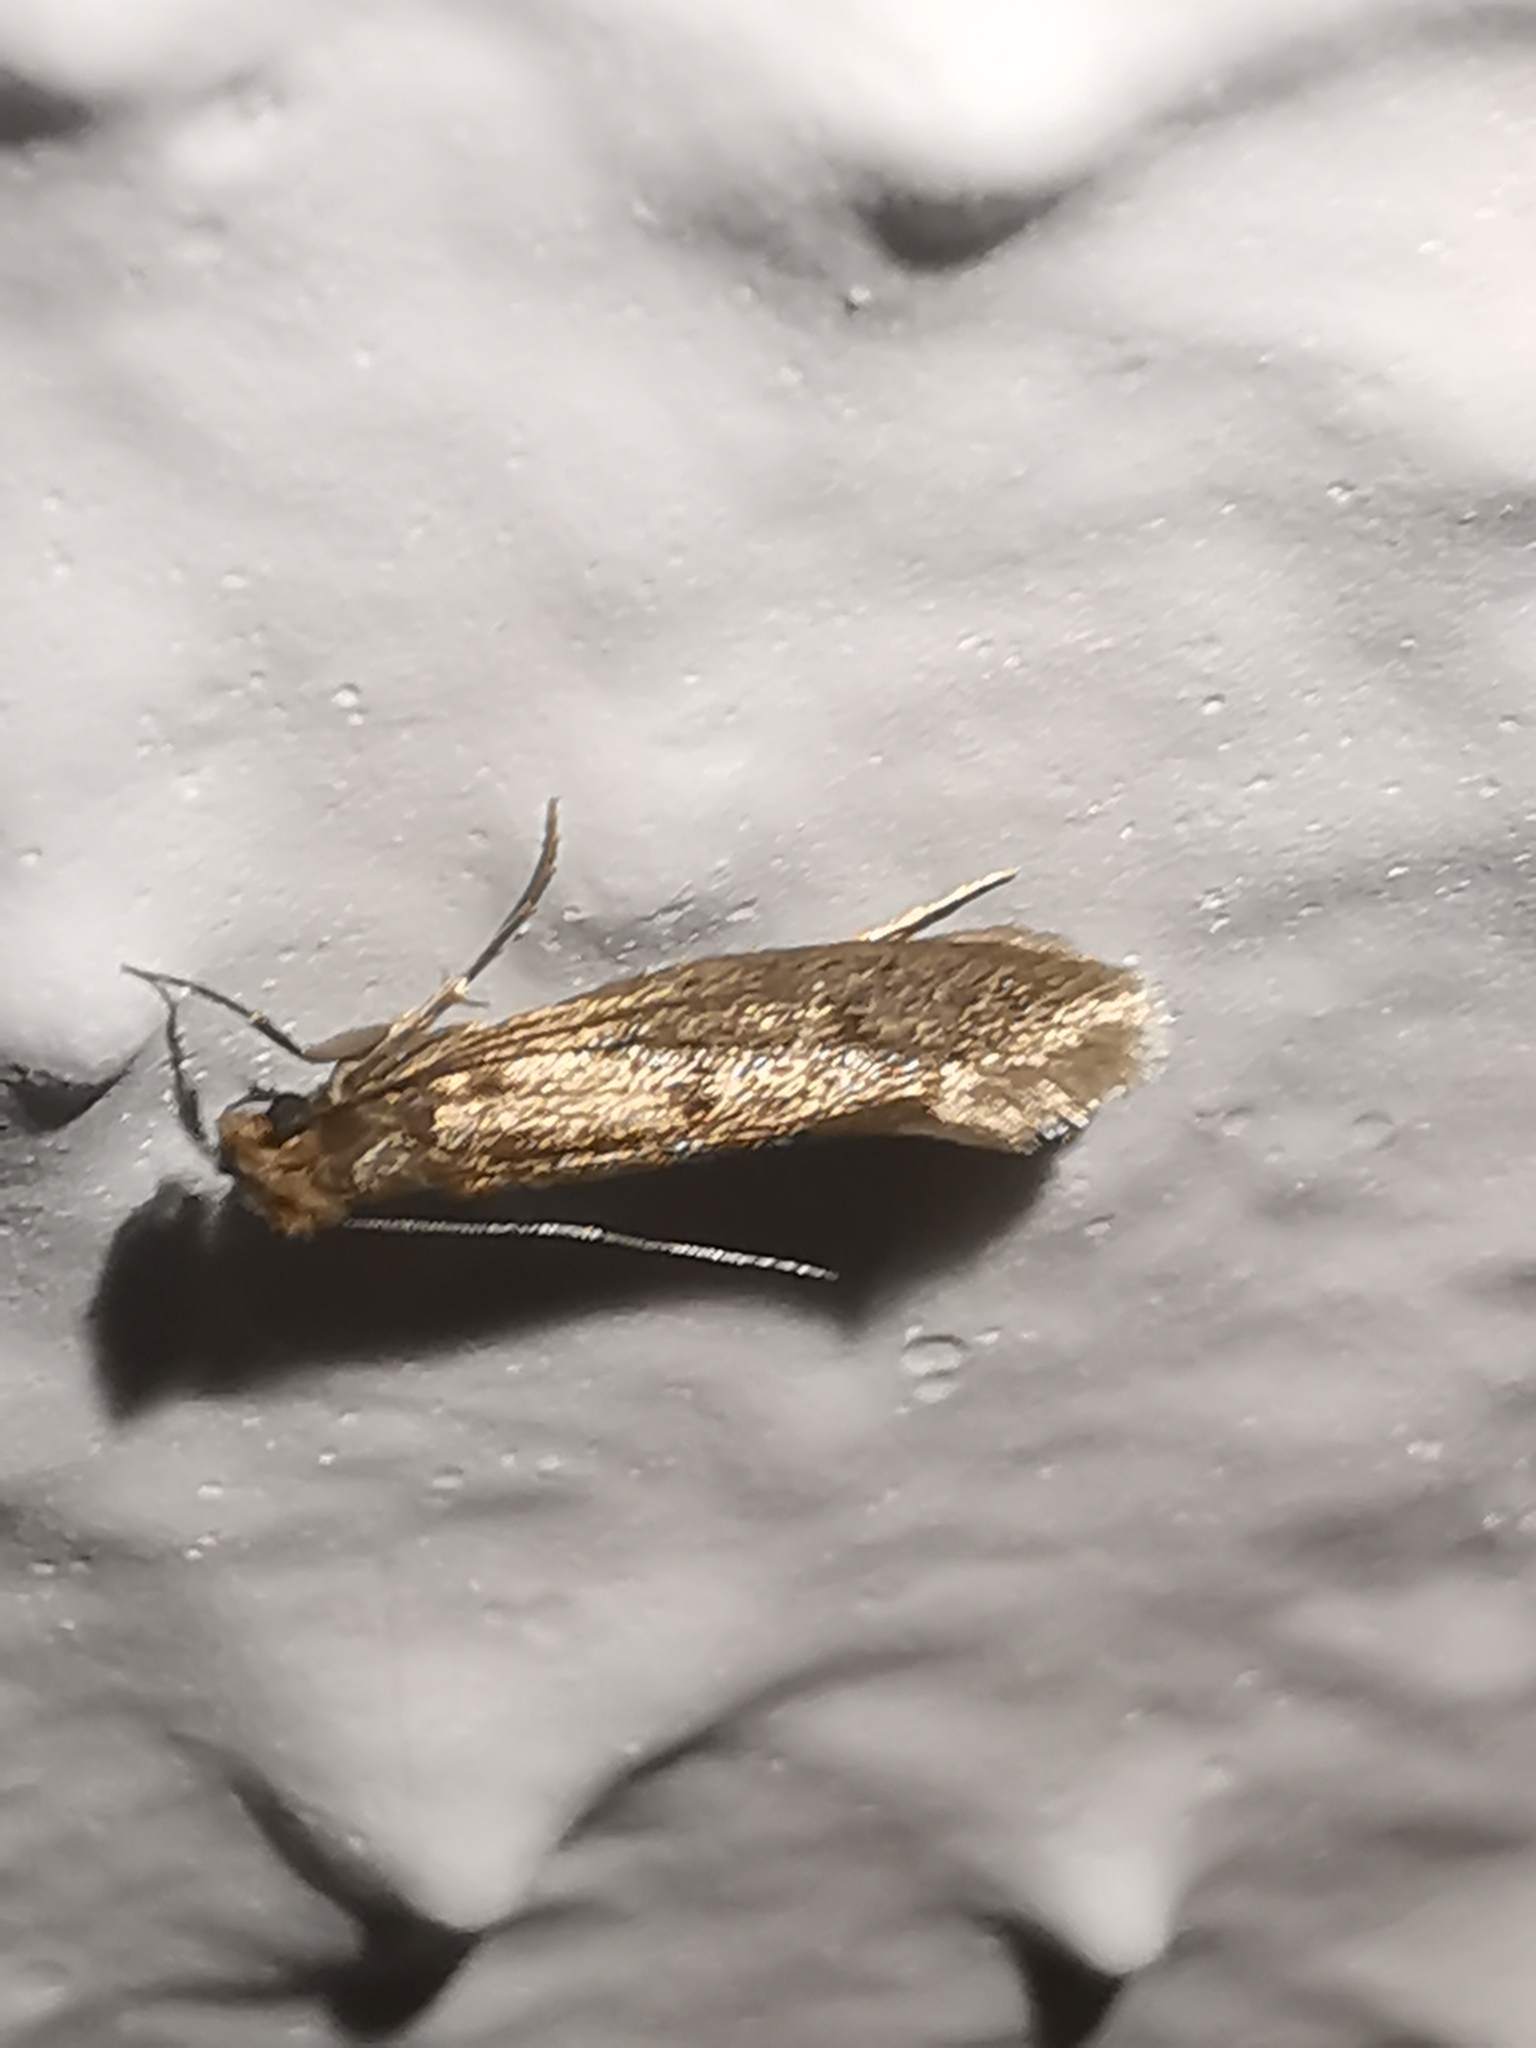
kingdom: Animalia
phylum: Arthropoda
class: Insecta
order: Lepidoptera
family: Tineidae
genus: Tinea
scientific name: Tinea pellionella
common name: Case-making clothes moth
